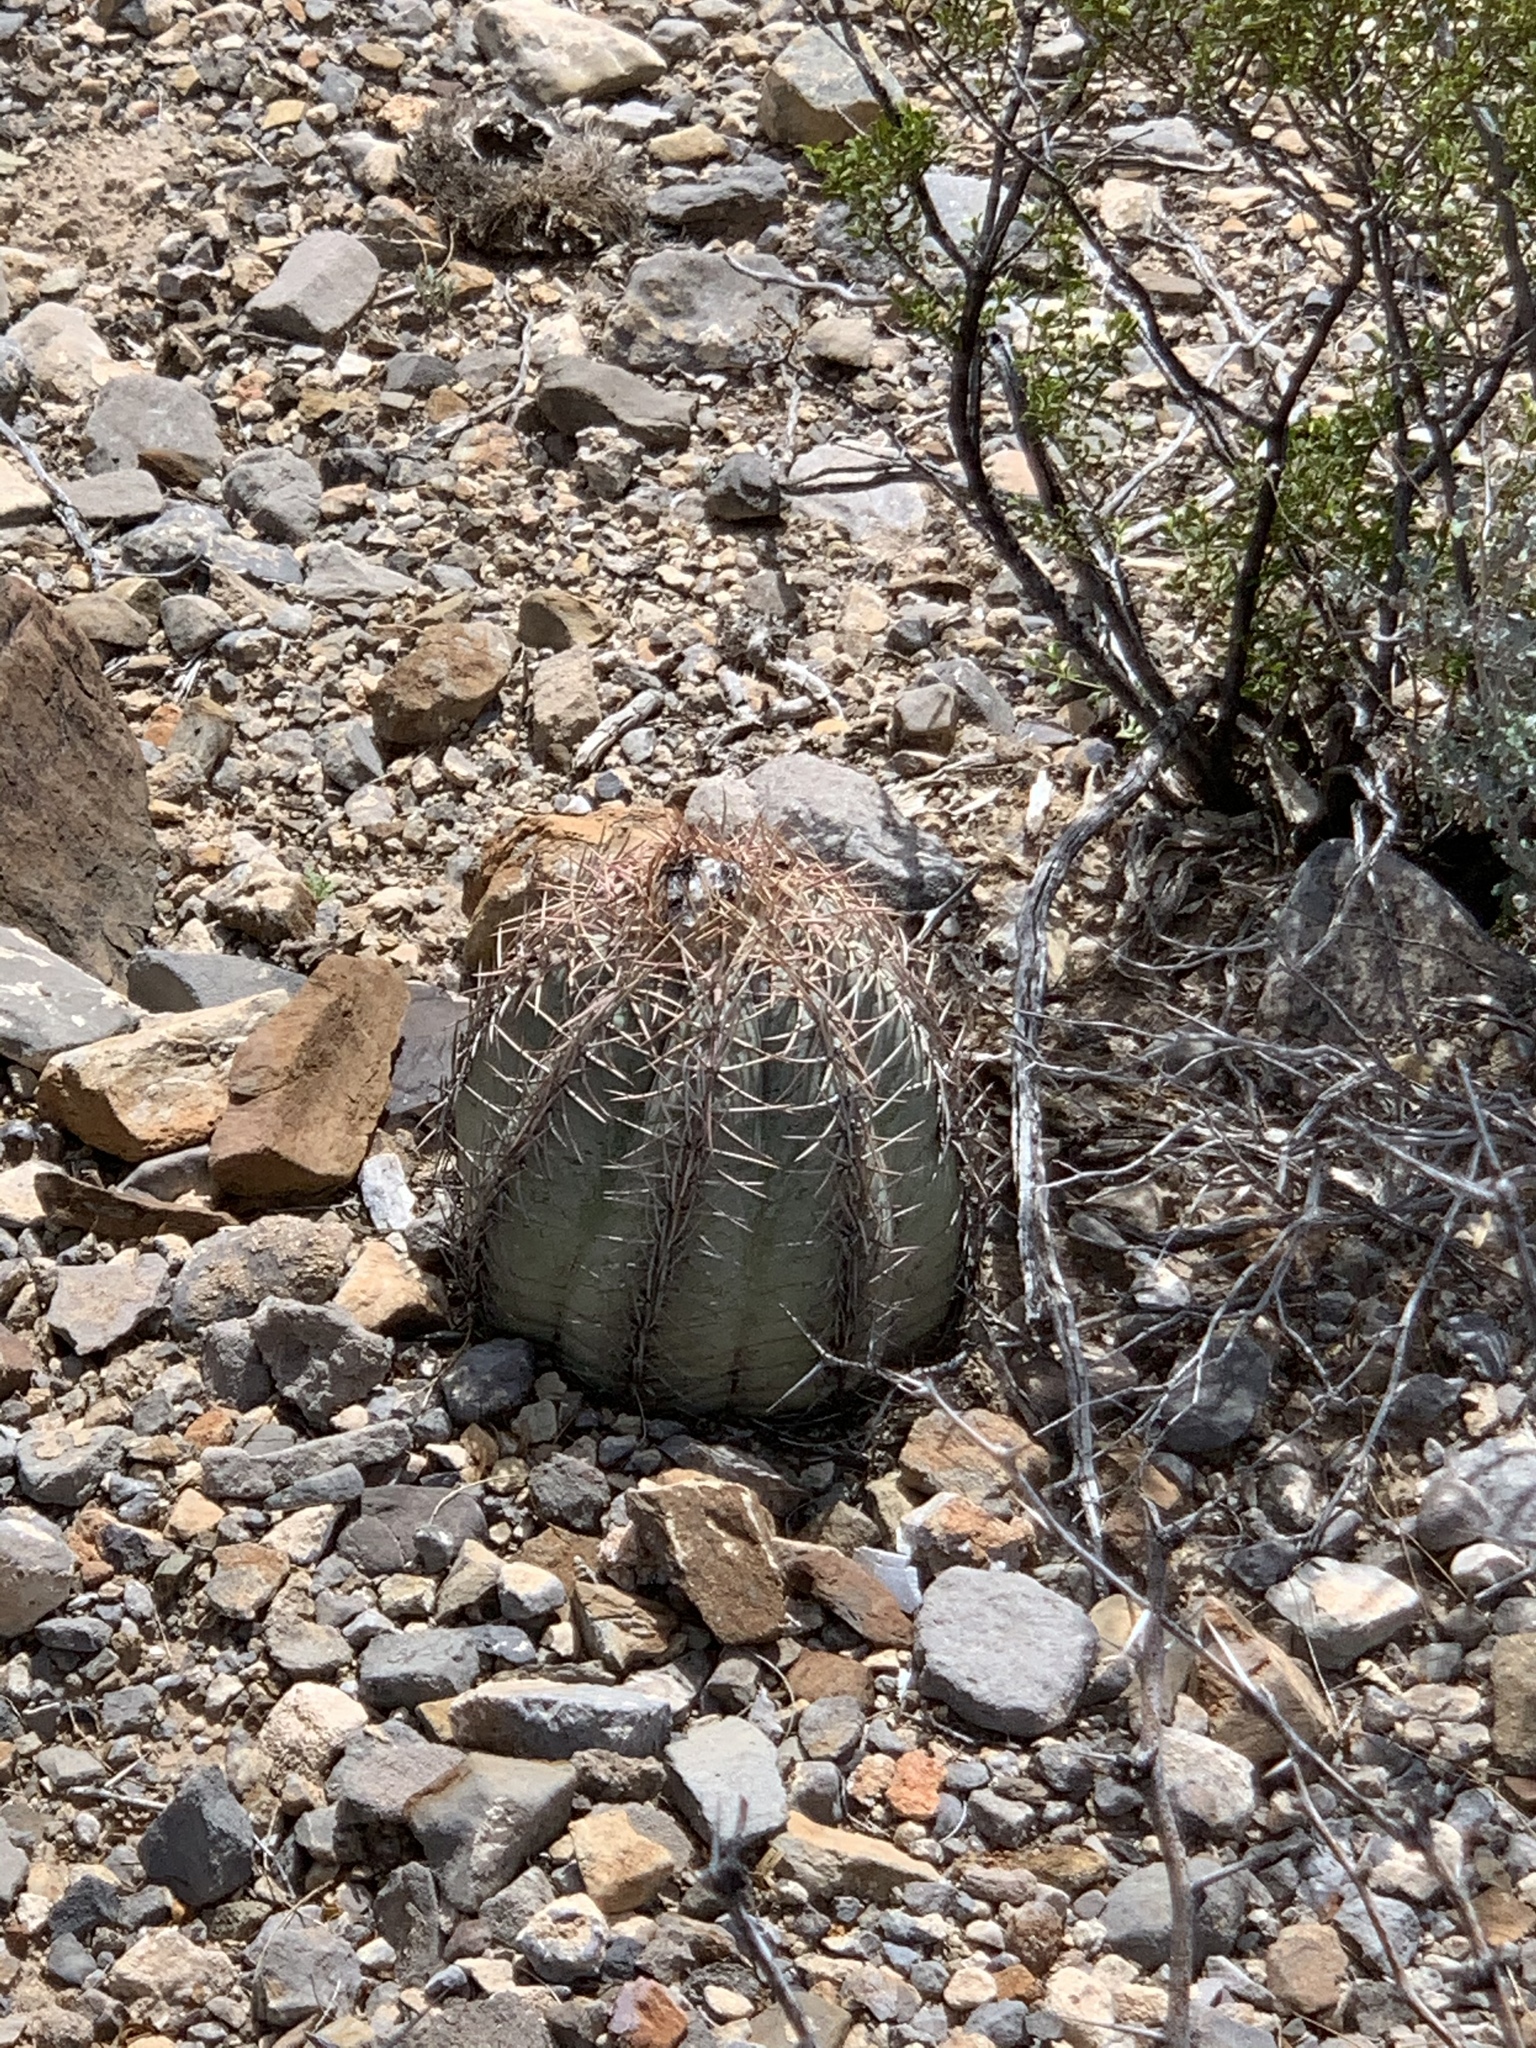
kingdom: Plantae
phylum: Tracheophyta
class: Magnoliopsida
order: Caryophyllales
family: Cactaceae
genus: Echinocactus
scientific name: Echinocactus horizonthalonius
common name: Devilshead
